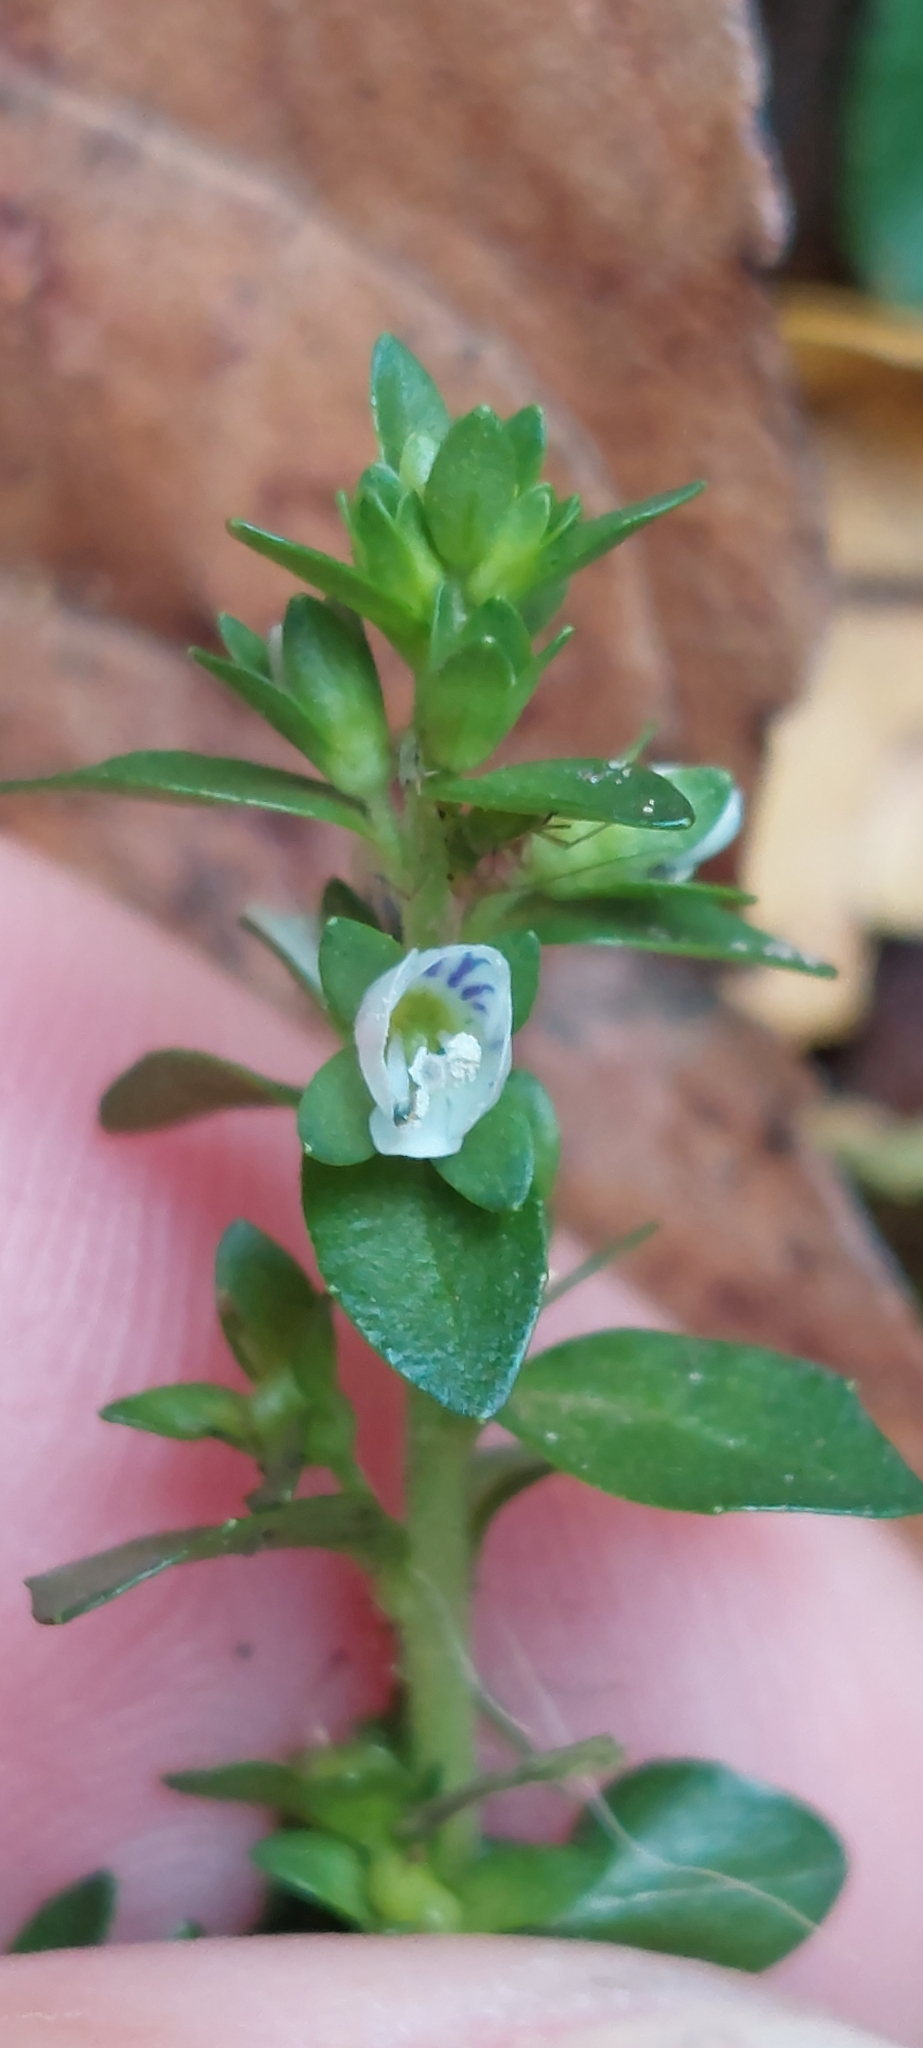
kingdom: Plantae
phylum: Tracheophyta
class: Magnoliopsida
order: Lamiales
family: Plantaginaceae
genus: Veronica
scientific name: Veronica serpyllifolia
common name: Thyme-leaved speedwell
